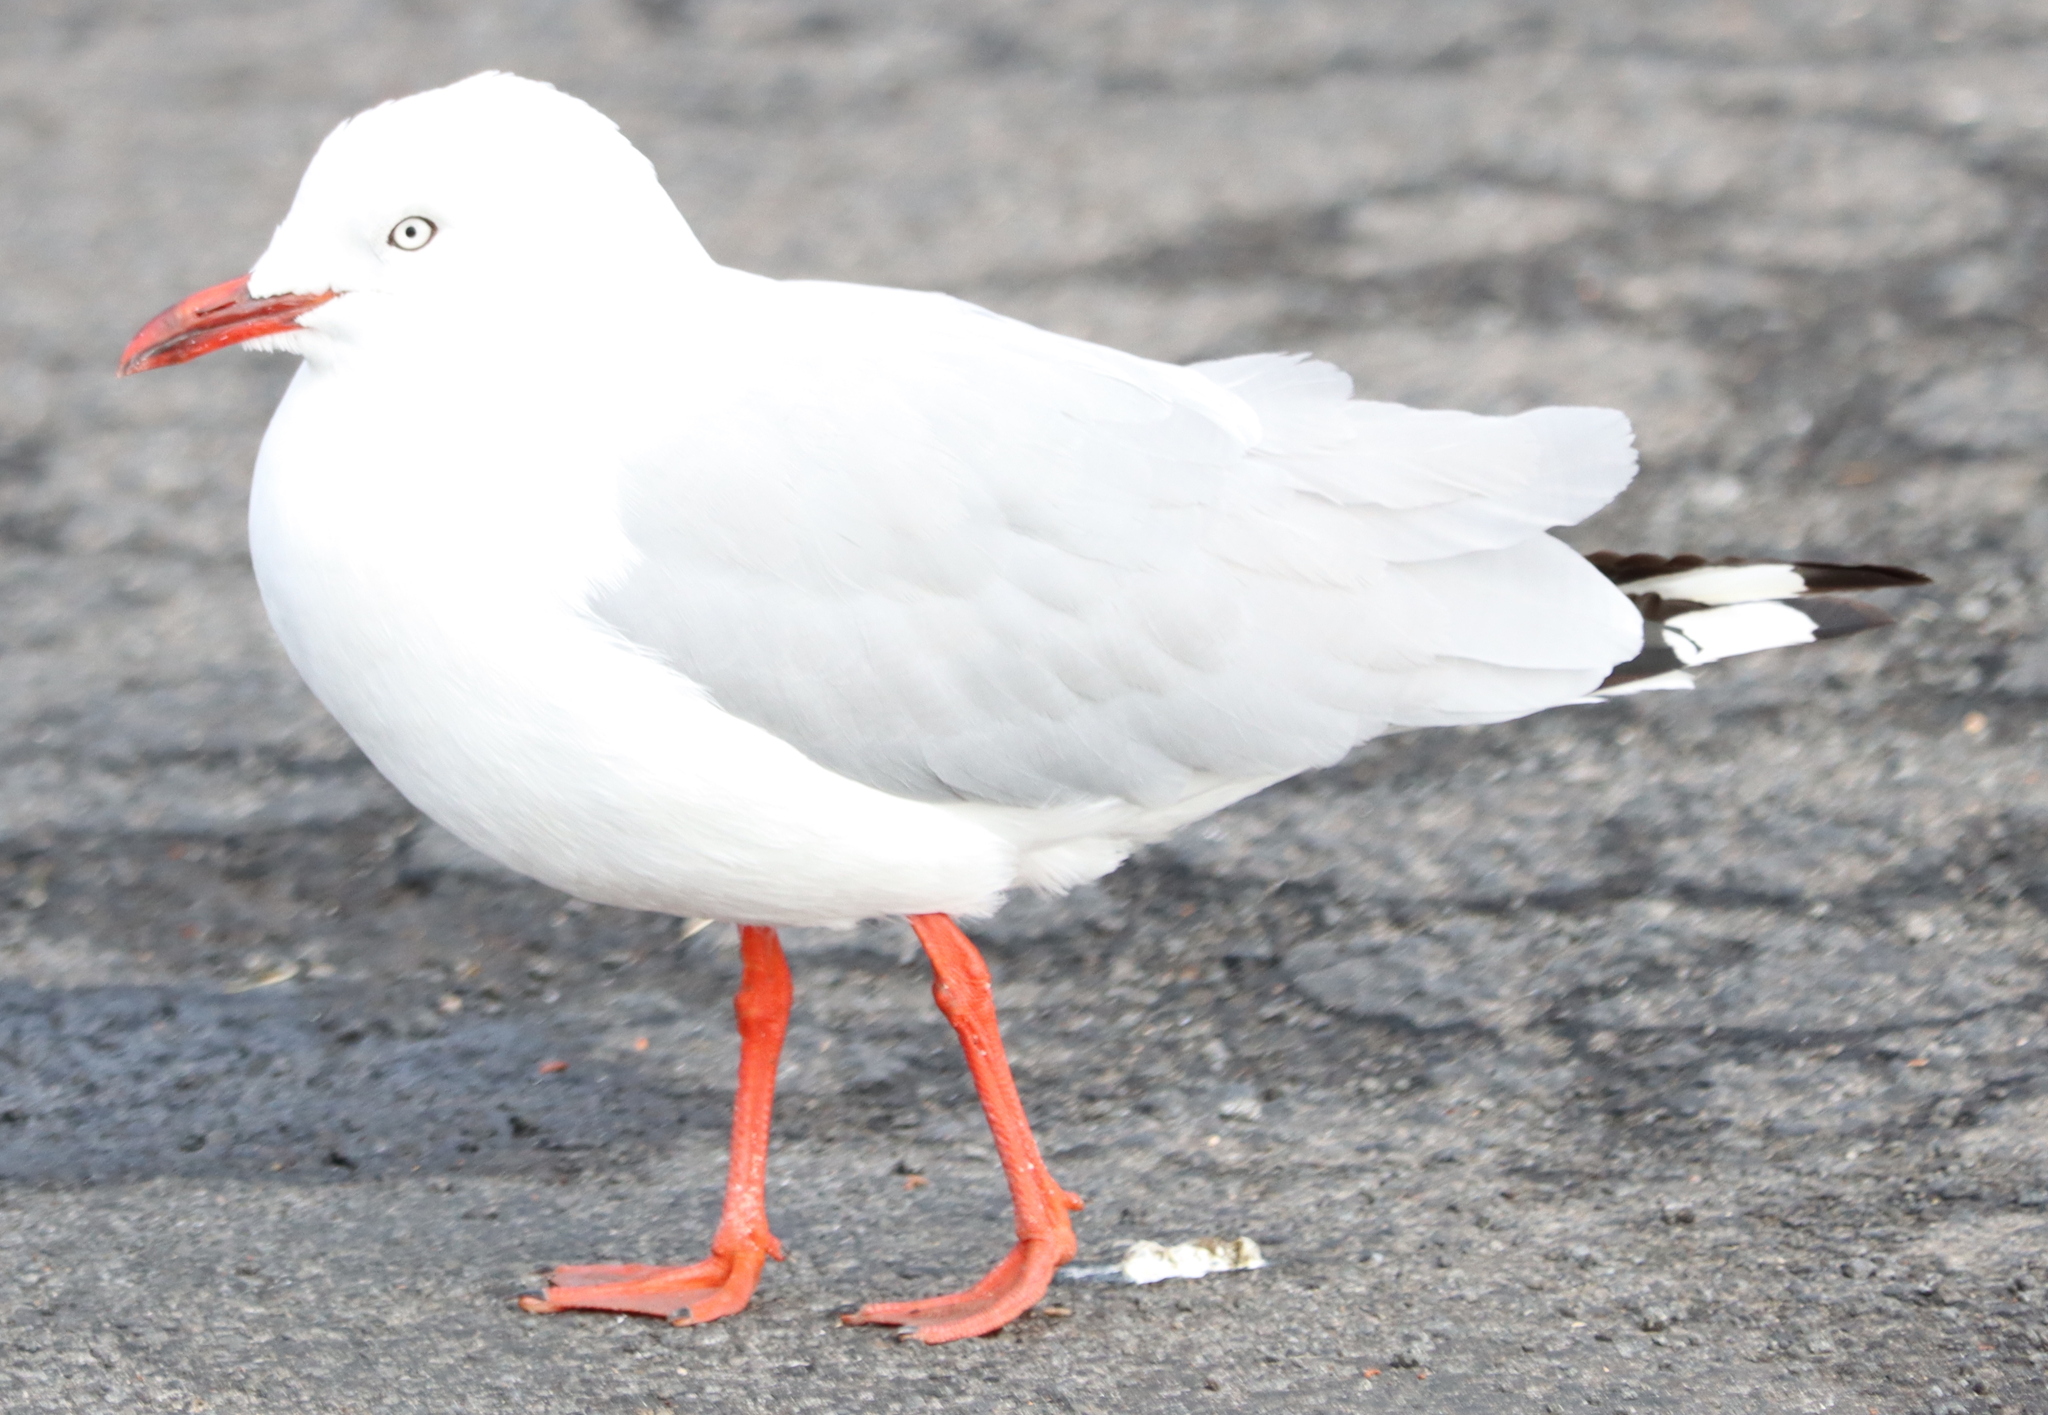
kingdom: Animalia
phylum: Chordata
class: Aves
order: Charadriiformes
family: Laridae
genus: Chroicocephalus
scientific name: Chroicocephalus novaehollandiae
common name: Silver gull
